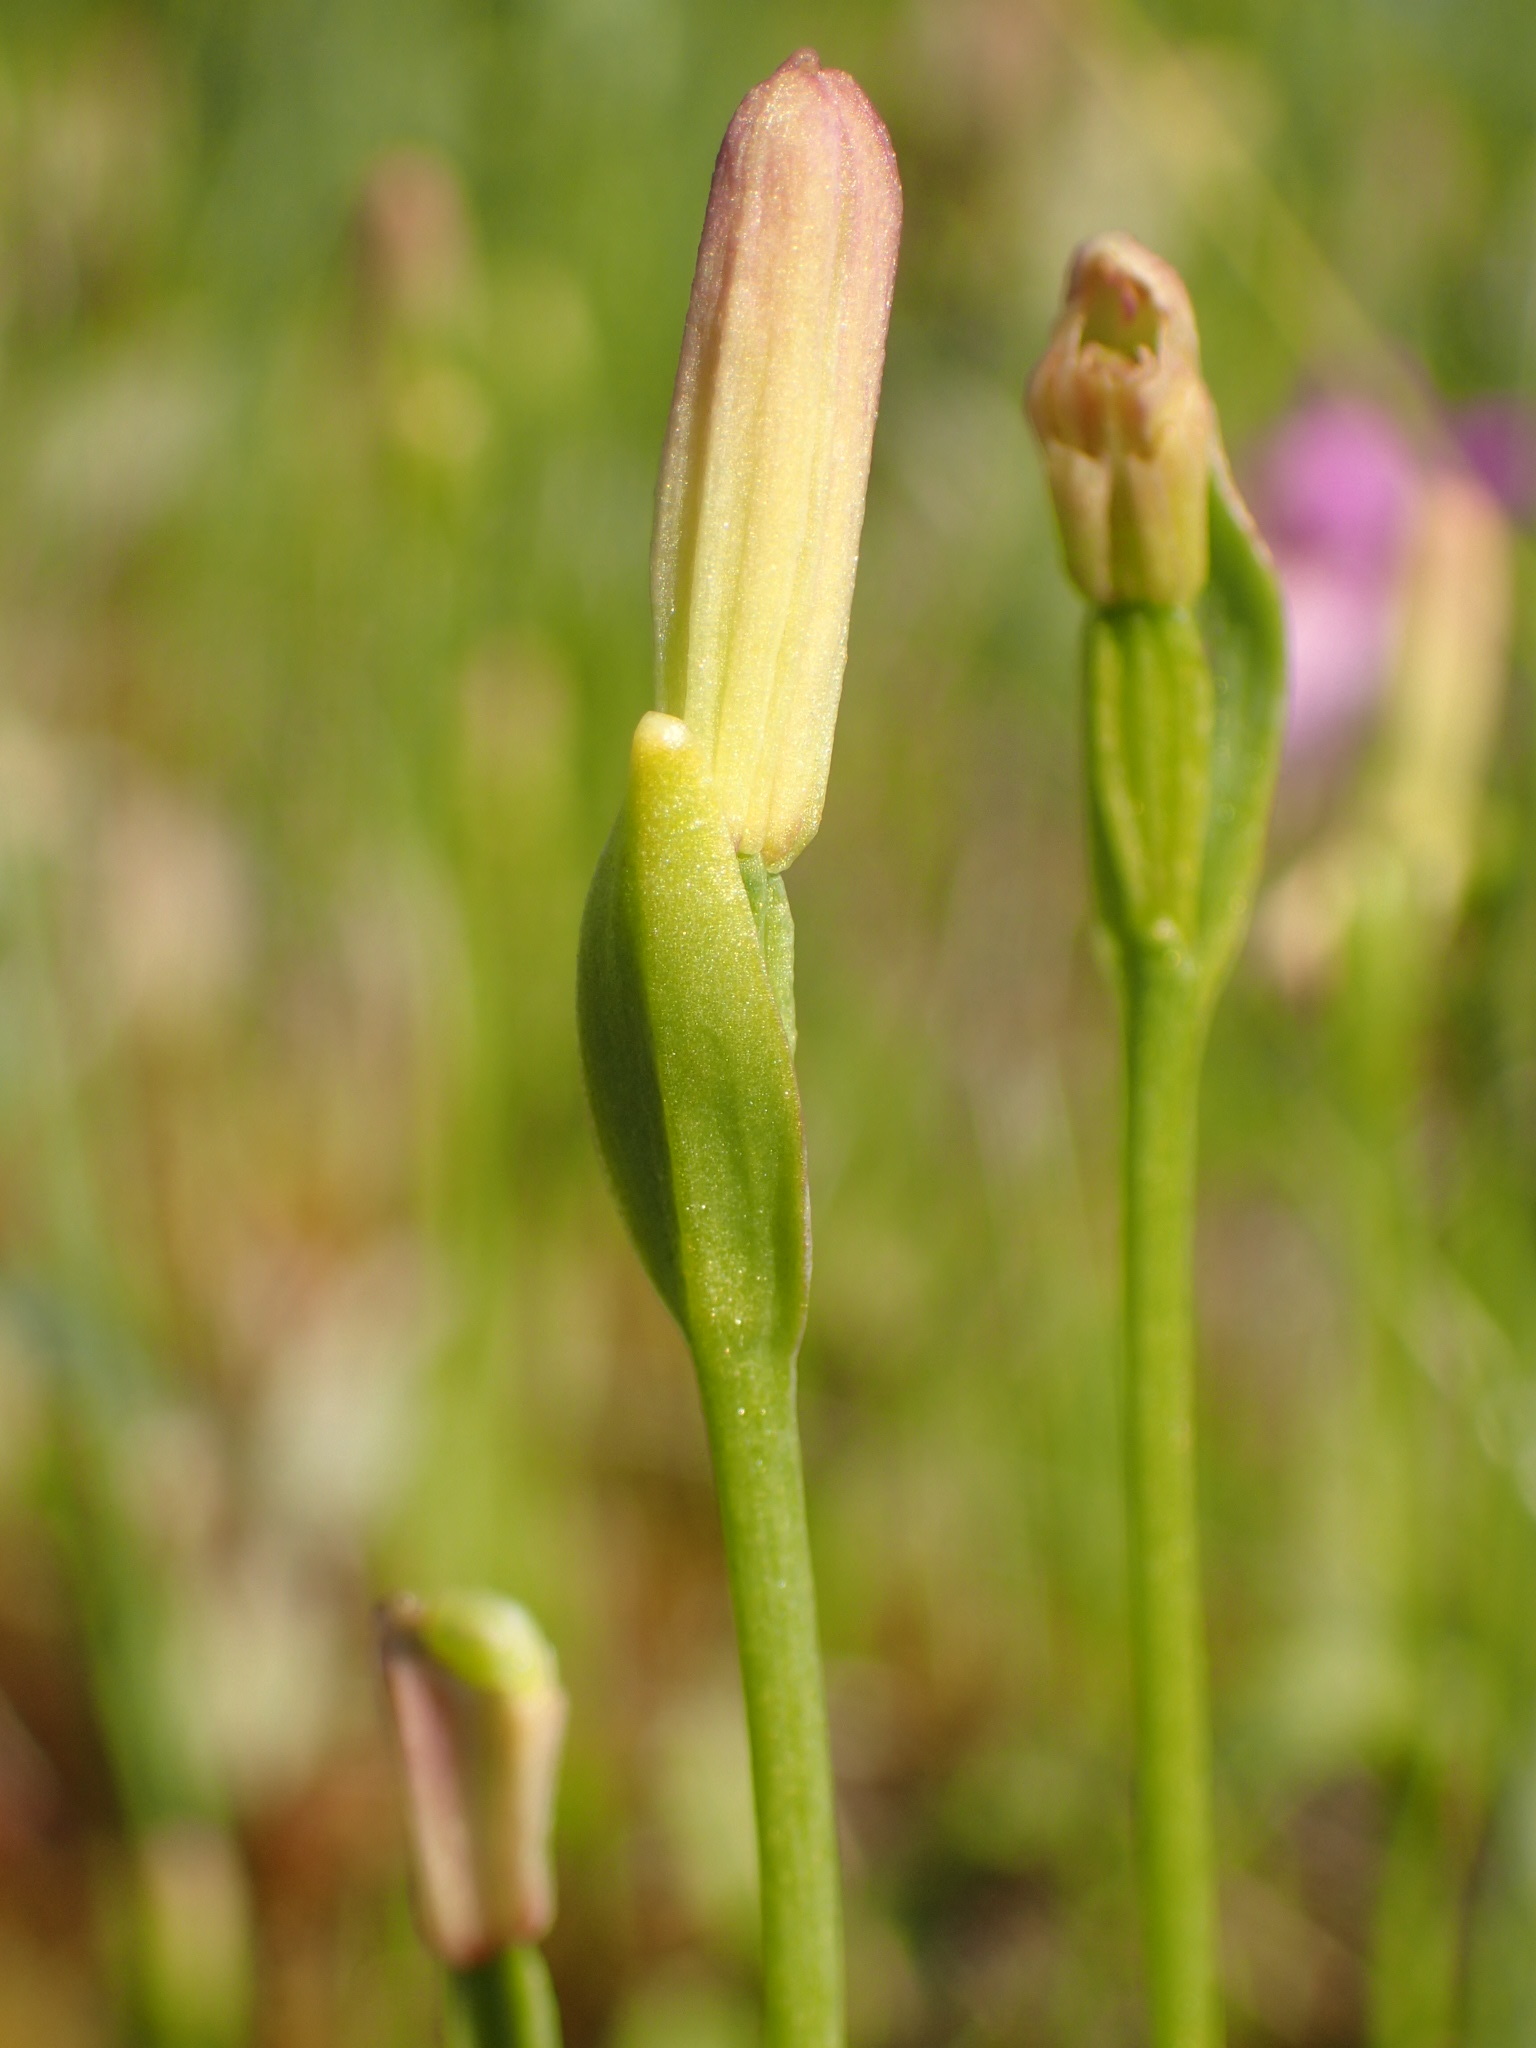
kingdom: Plantae
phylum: Tracheophyta
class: Liliopsida
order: Asparagales
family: Orchidaceae
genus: Pogonia
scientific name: Pogonia ophioglossoides
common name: Rose pogonia
